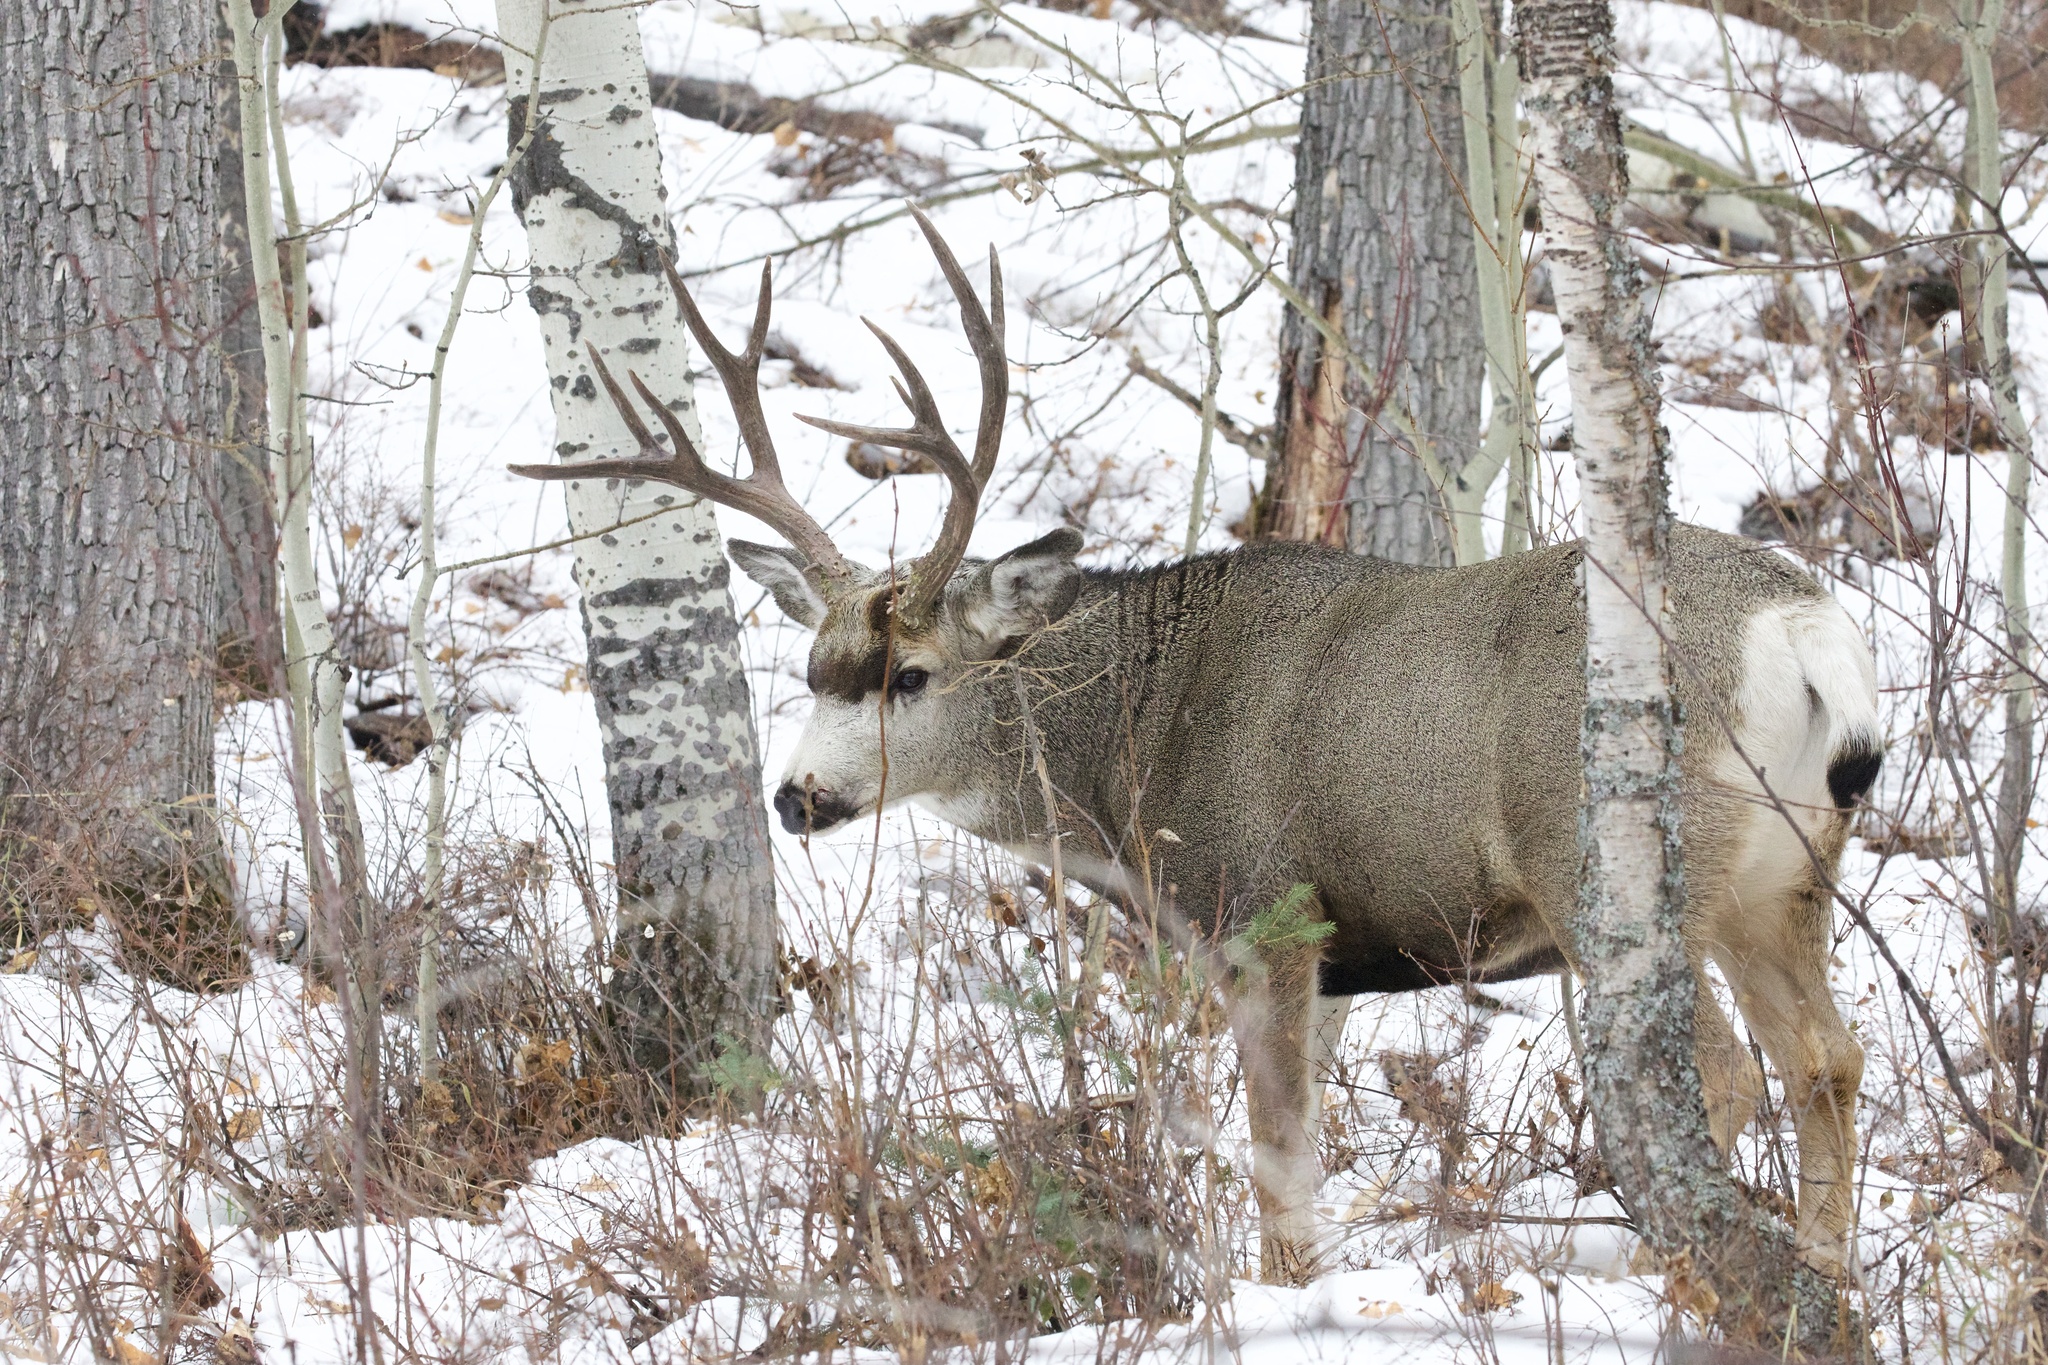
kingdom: Animalia
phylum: Chordata
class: Mammalia
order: Artiodactyla
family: Cervidae
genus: Odocoileus
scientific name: Odocoileus hemionus
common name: Mule deer
